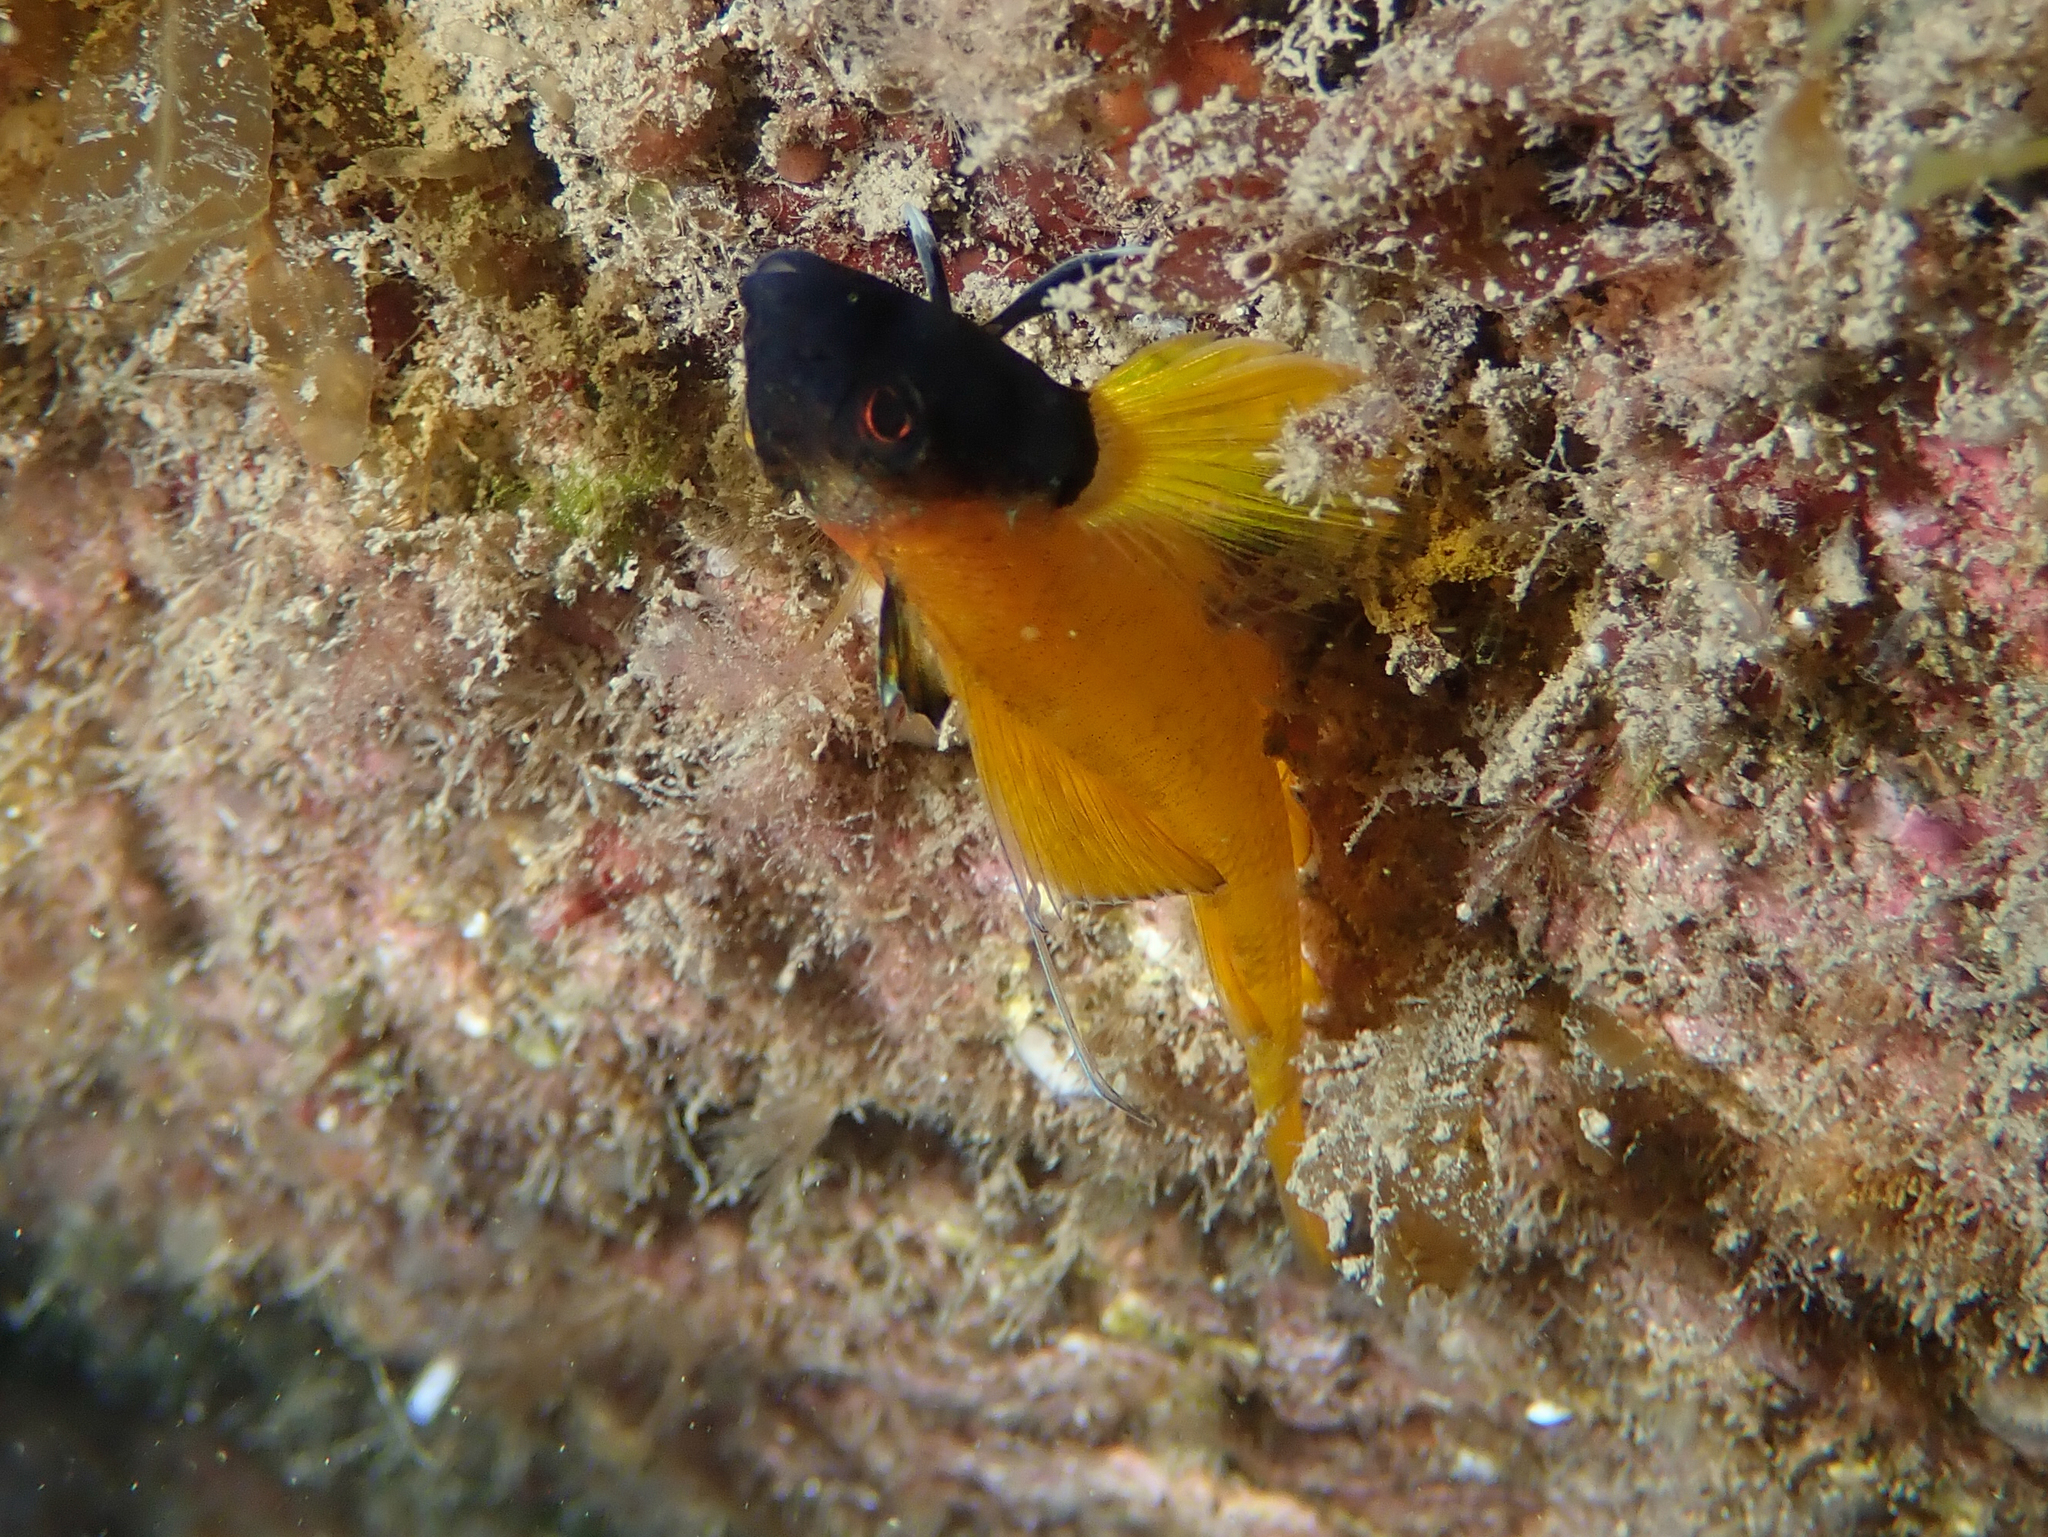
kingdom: Animalia
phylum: Chordata
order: Perciformes
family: Tripterygiidae
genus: Tripterygion
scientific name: Tripterygion delaisi
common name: Black-face blenny
